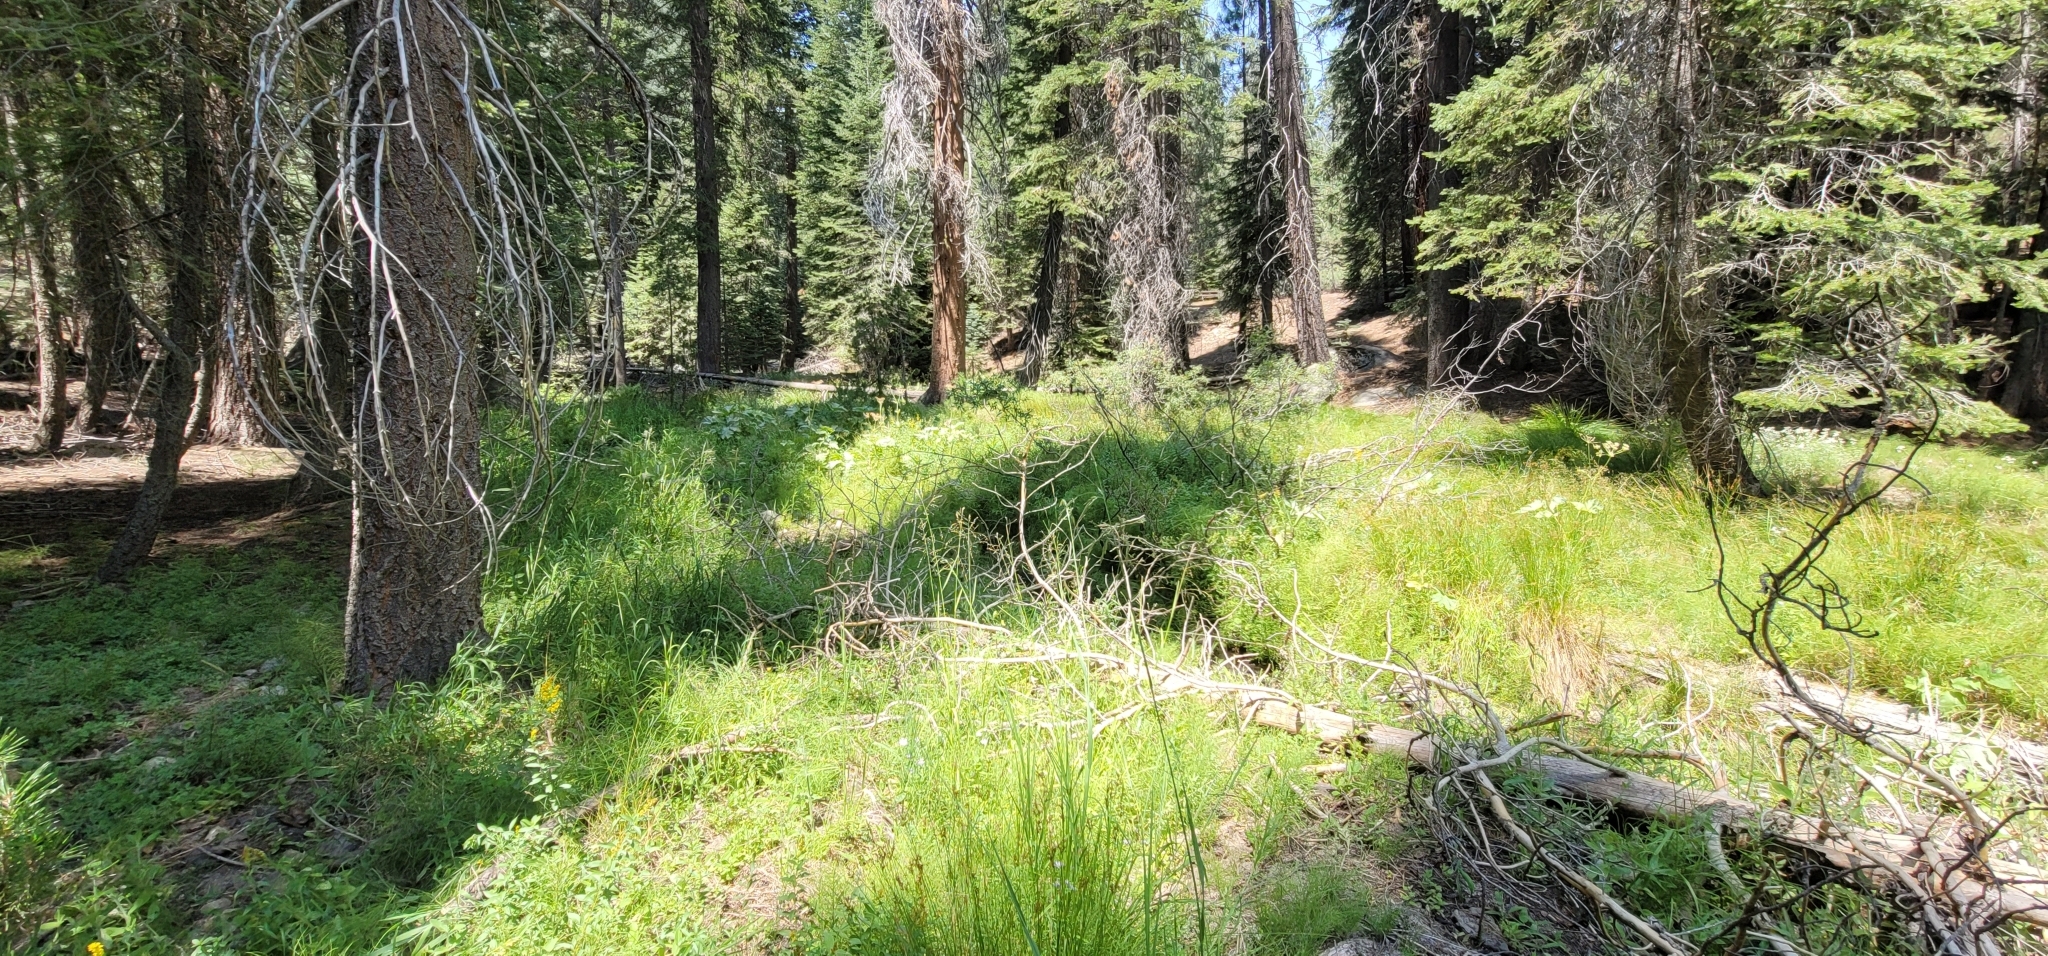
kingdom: Plantae
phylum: Tracheophyta
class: Liliopsida
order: Poales
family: Poaceae
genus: Cinna
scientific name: Cinna bolanderi
